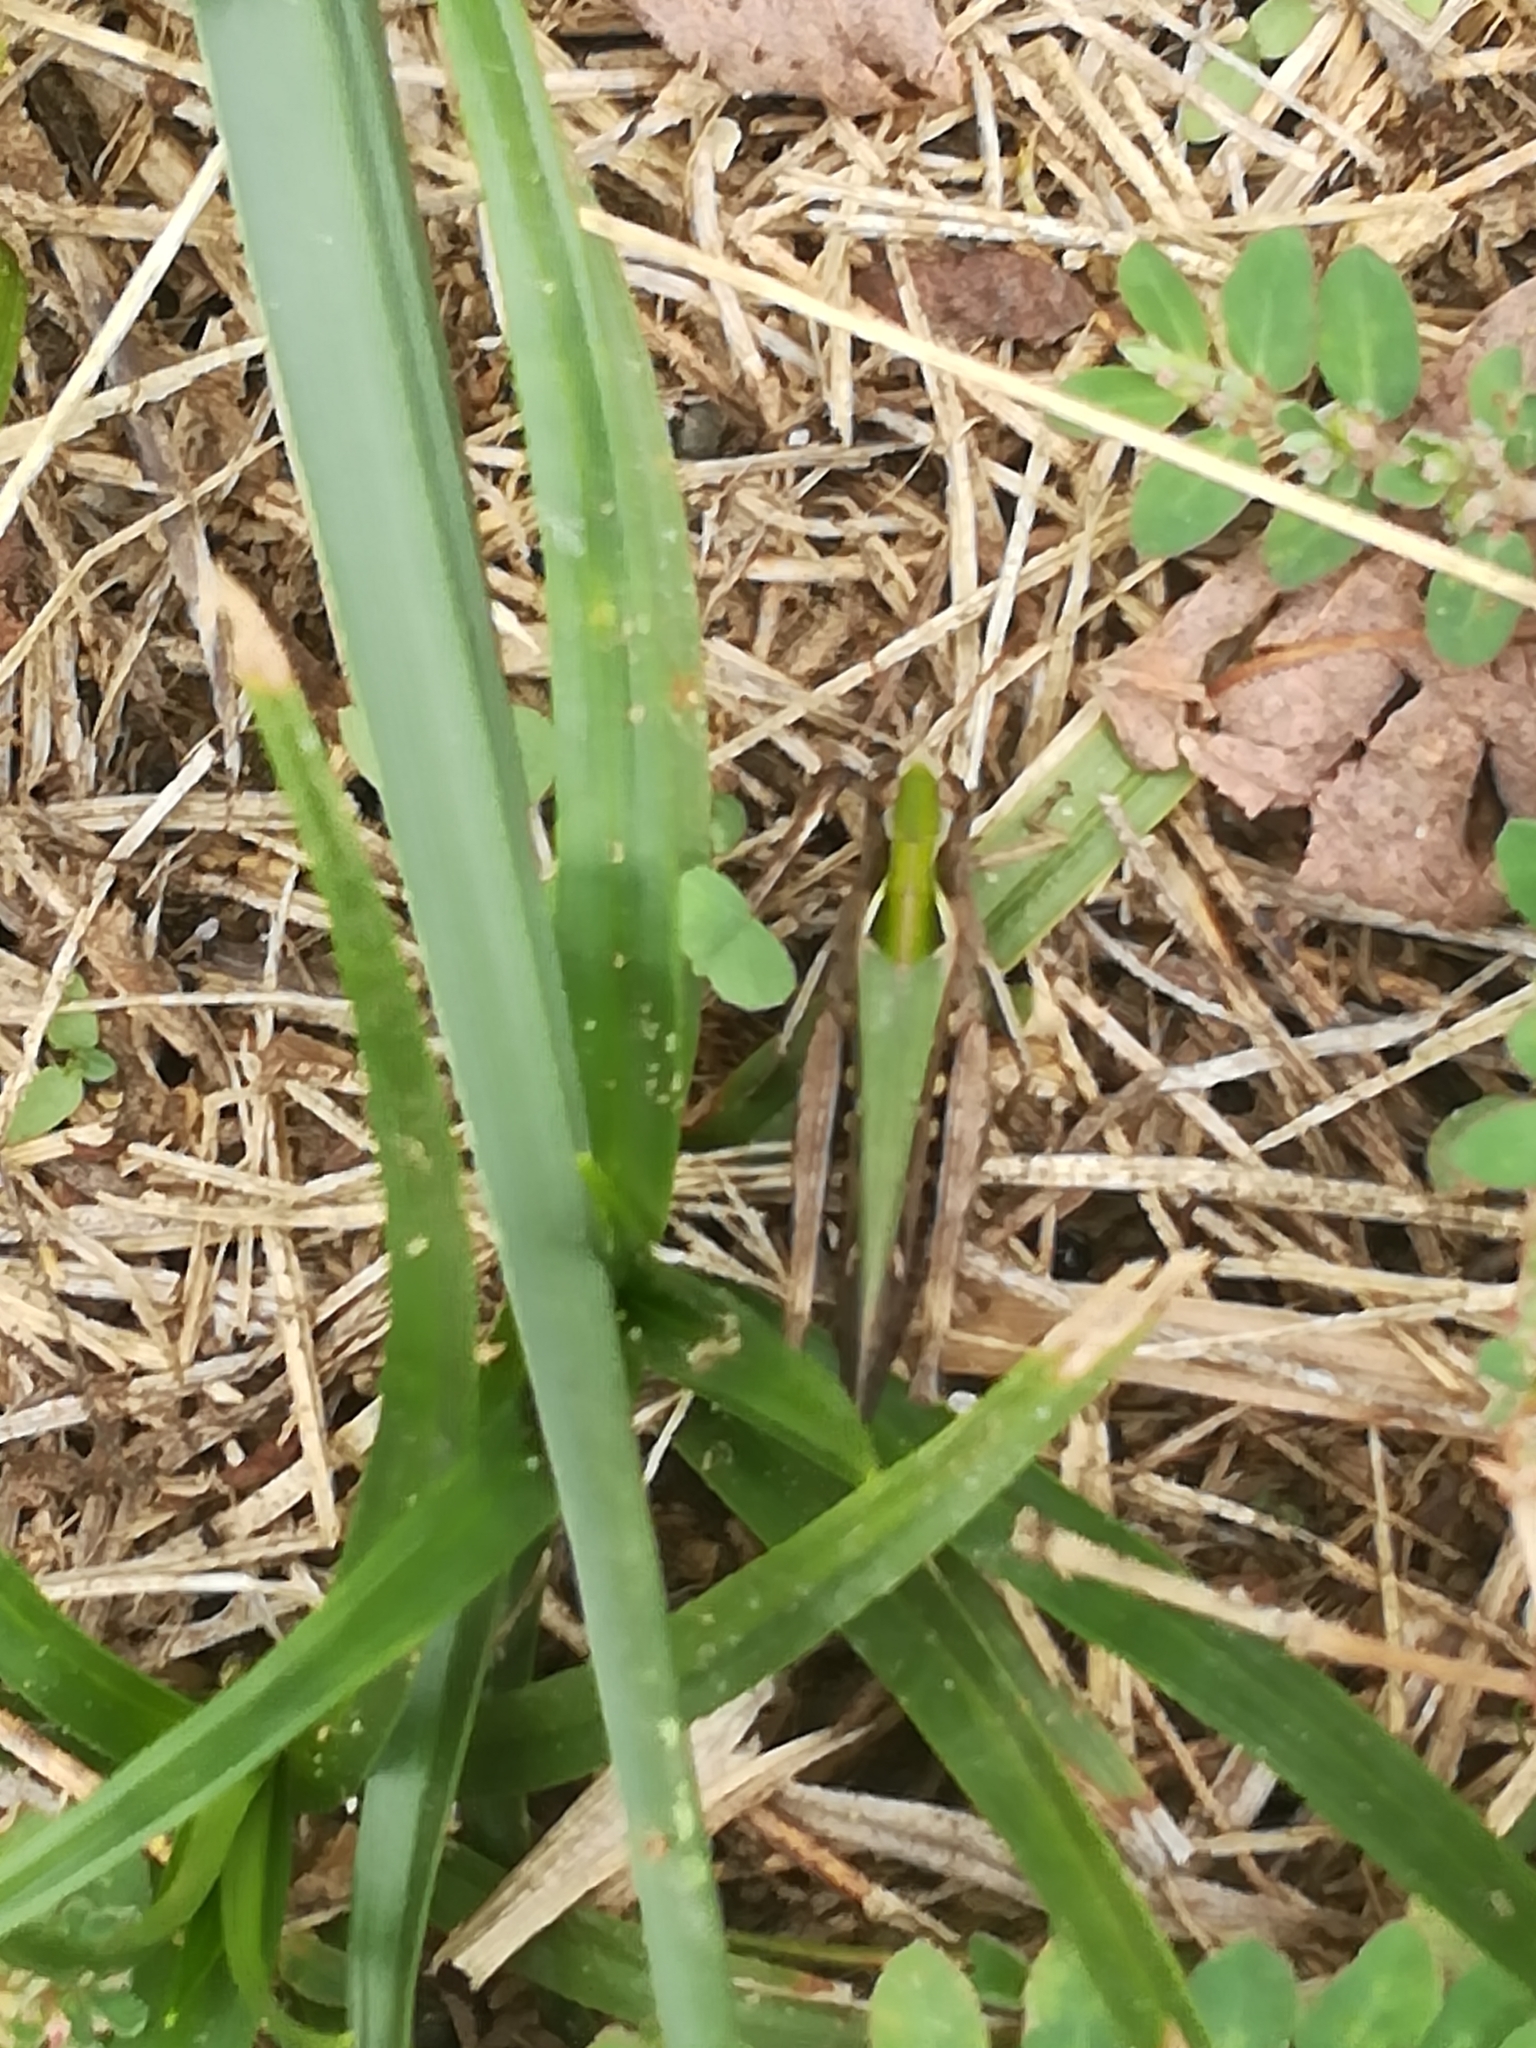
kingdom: Animalia
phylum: Arthropoda
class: Insecta
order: Orthoptera
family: Acrididae
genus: Omocestus
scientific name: Omocestus rufipes
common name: Woodland grasshopper
